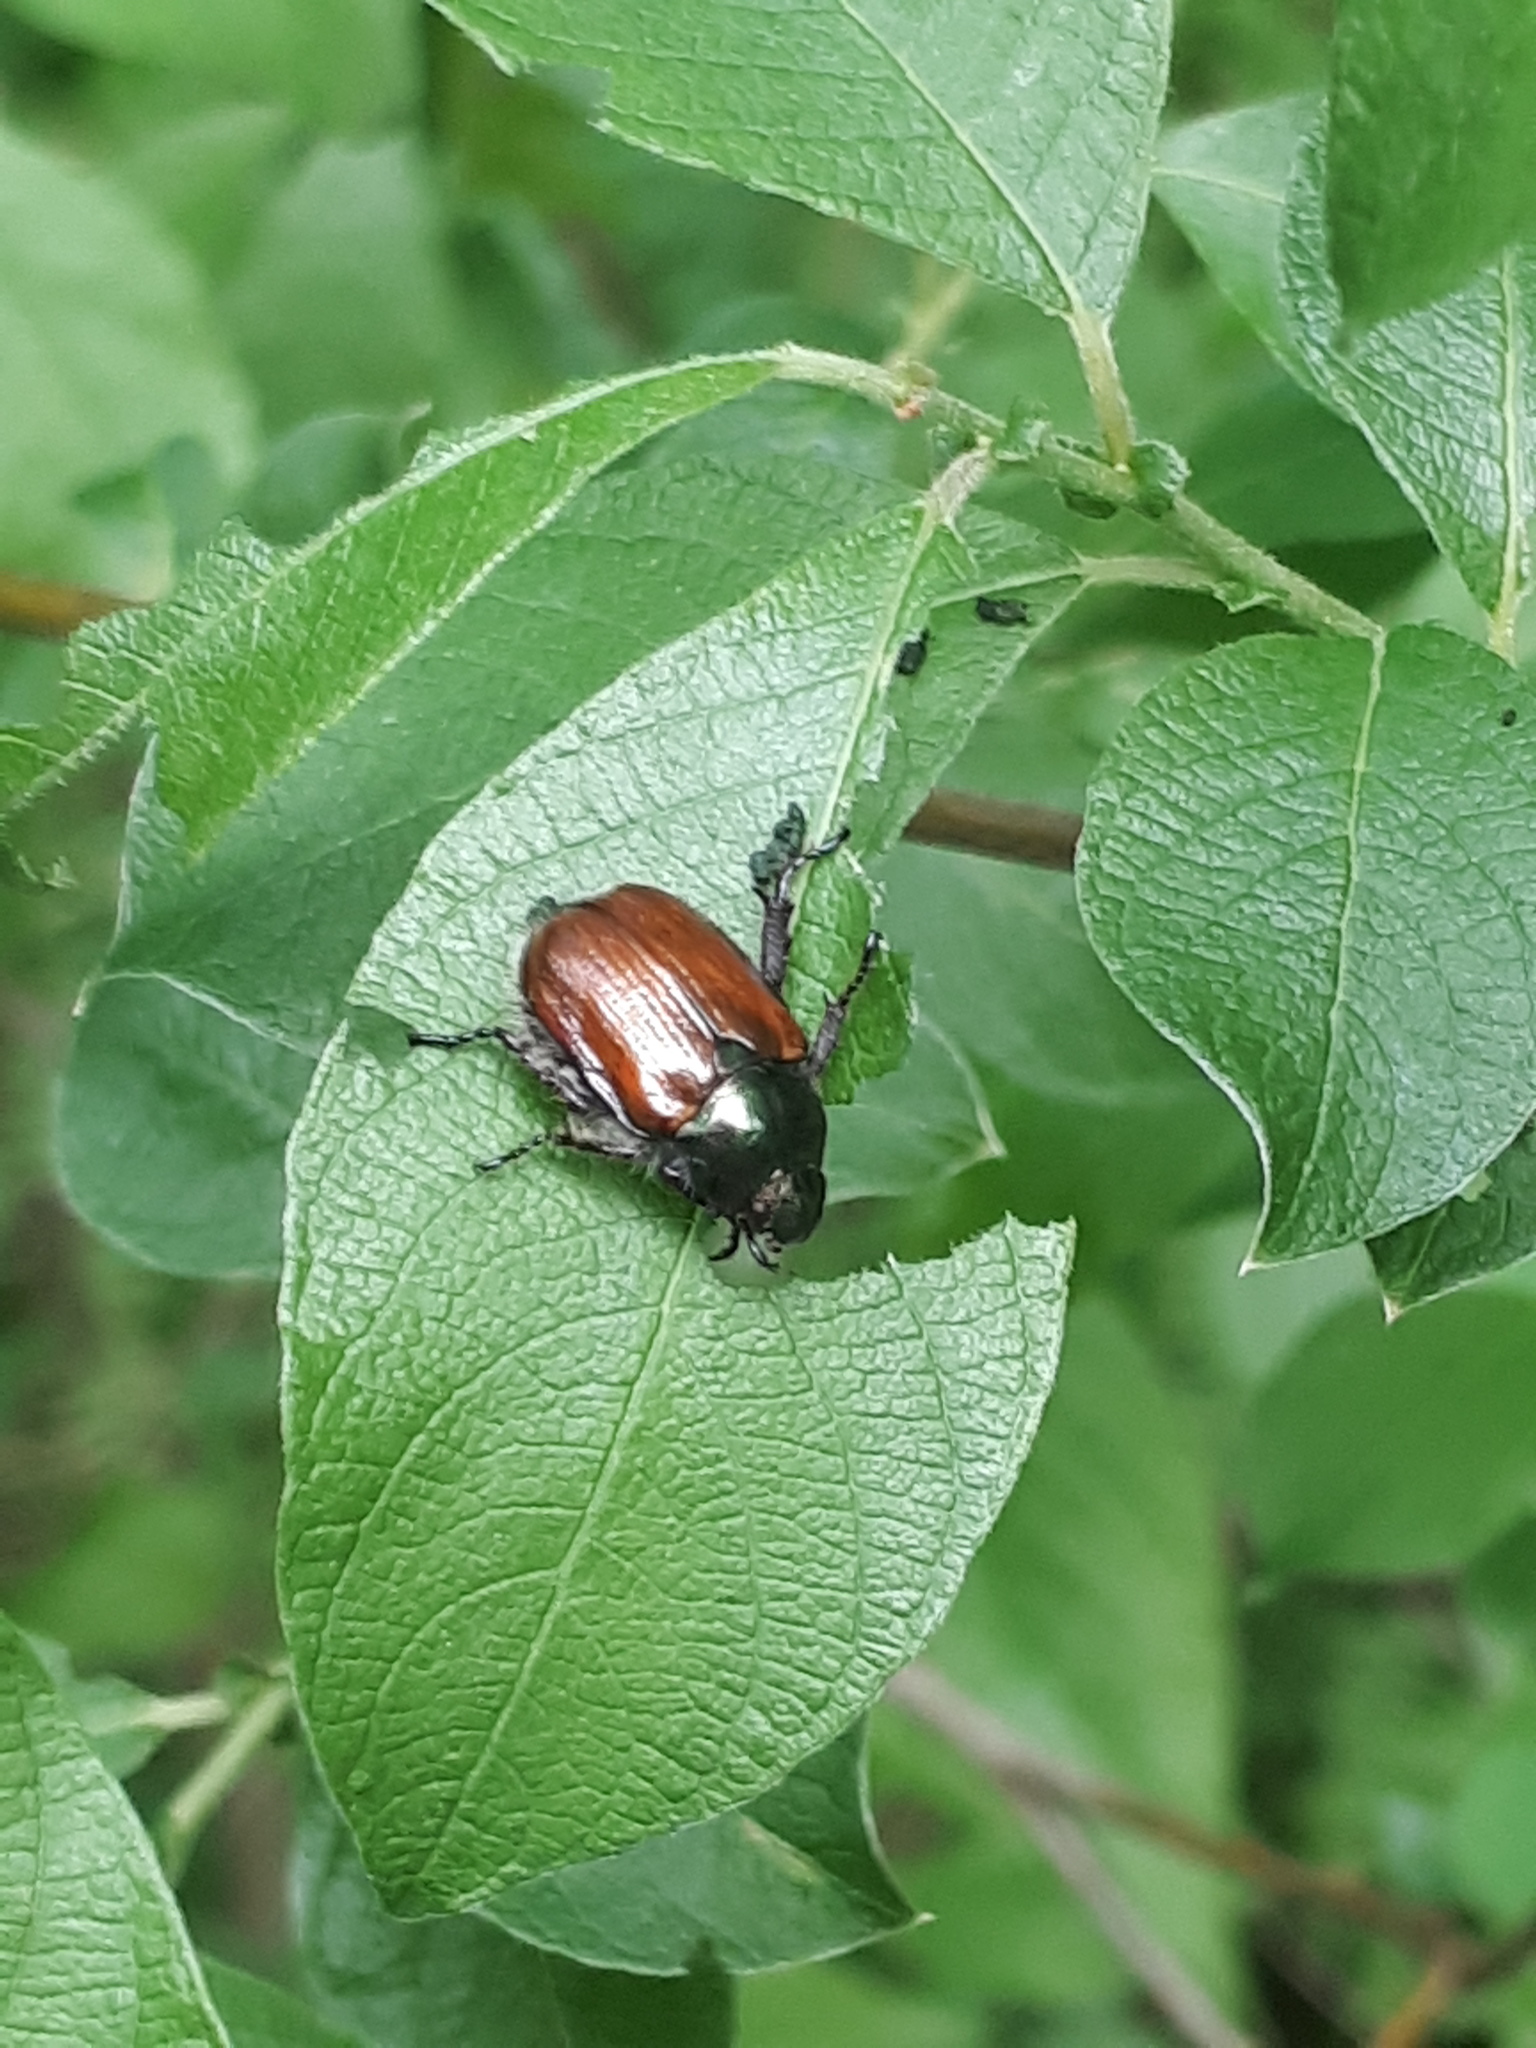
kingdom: Animalia
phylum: Arthropoda
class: Insecta
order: Coleoptera
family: Scarabaeidae
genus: Phyllopertha
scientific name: Phyllopertha horticola
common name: Garden chafer
